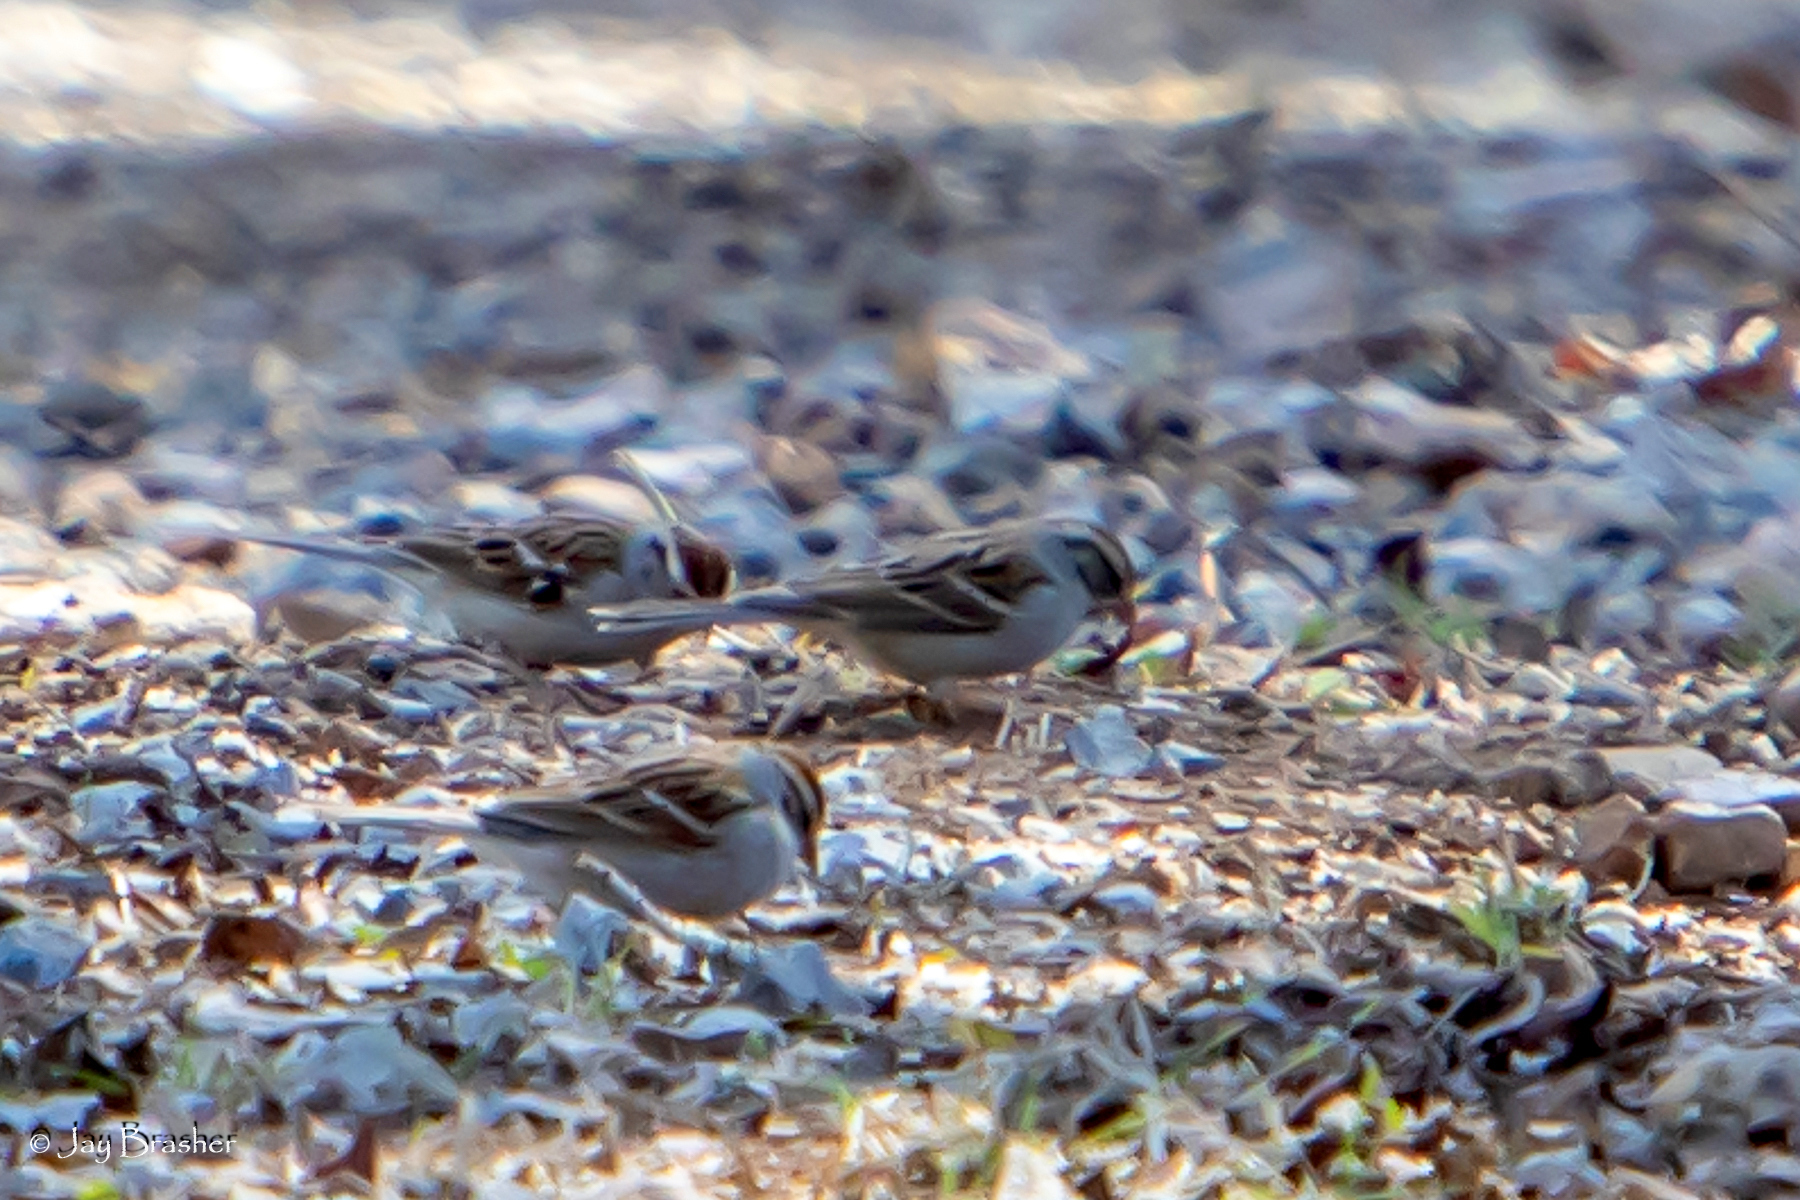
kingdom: Animalia
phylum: Chordata
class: Aves
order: Passeriformes
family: Passerellidae
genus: Spizella
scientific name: Spizella passerina
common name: Chipping sparrow
